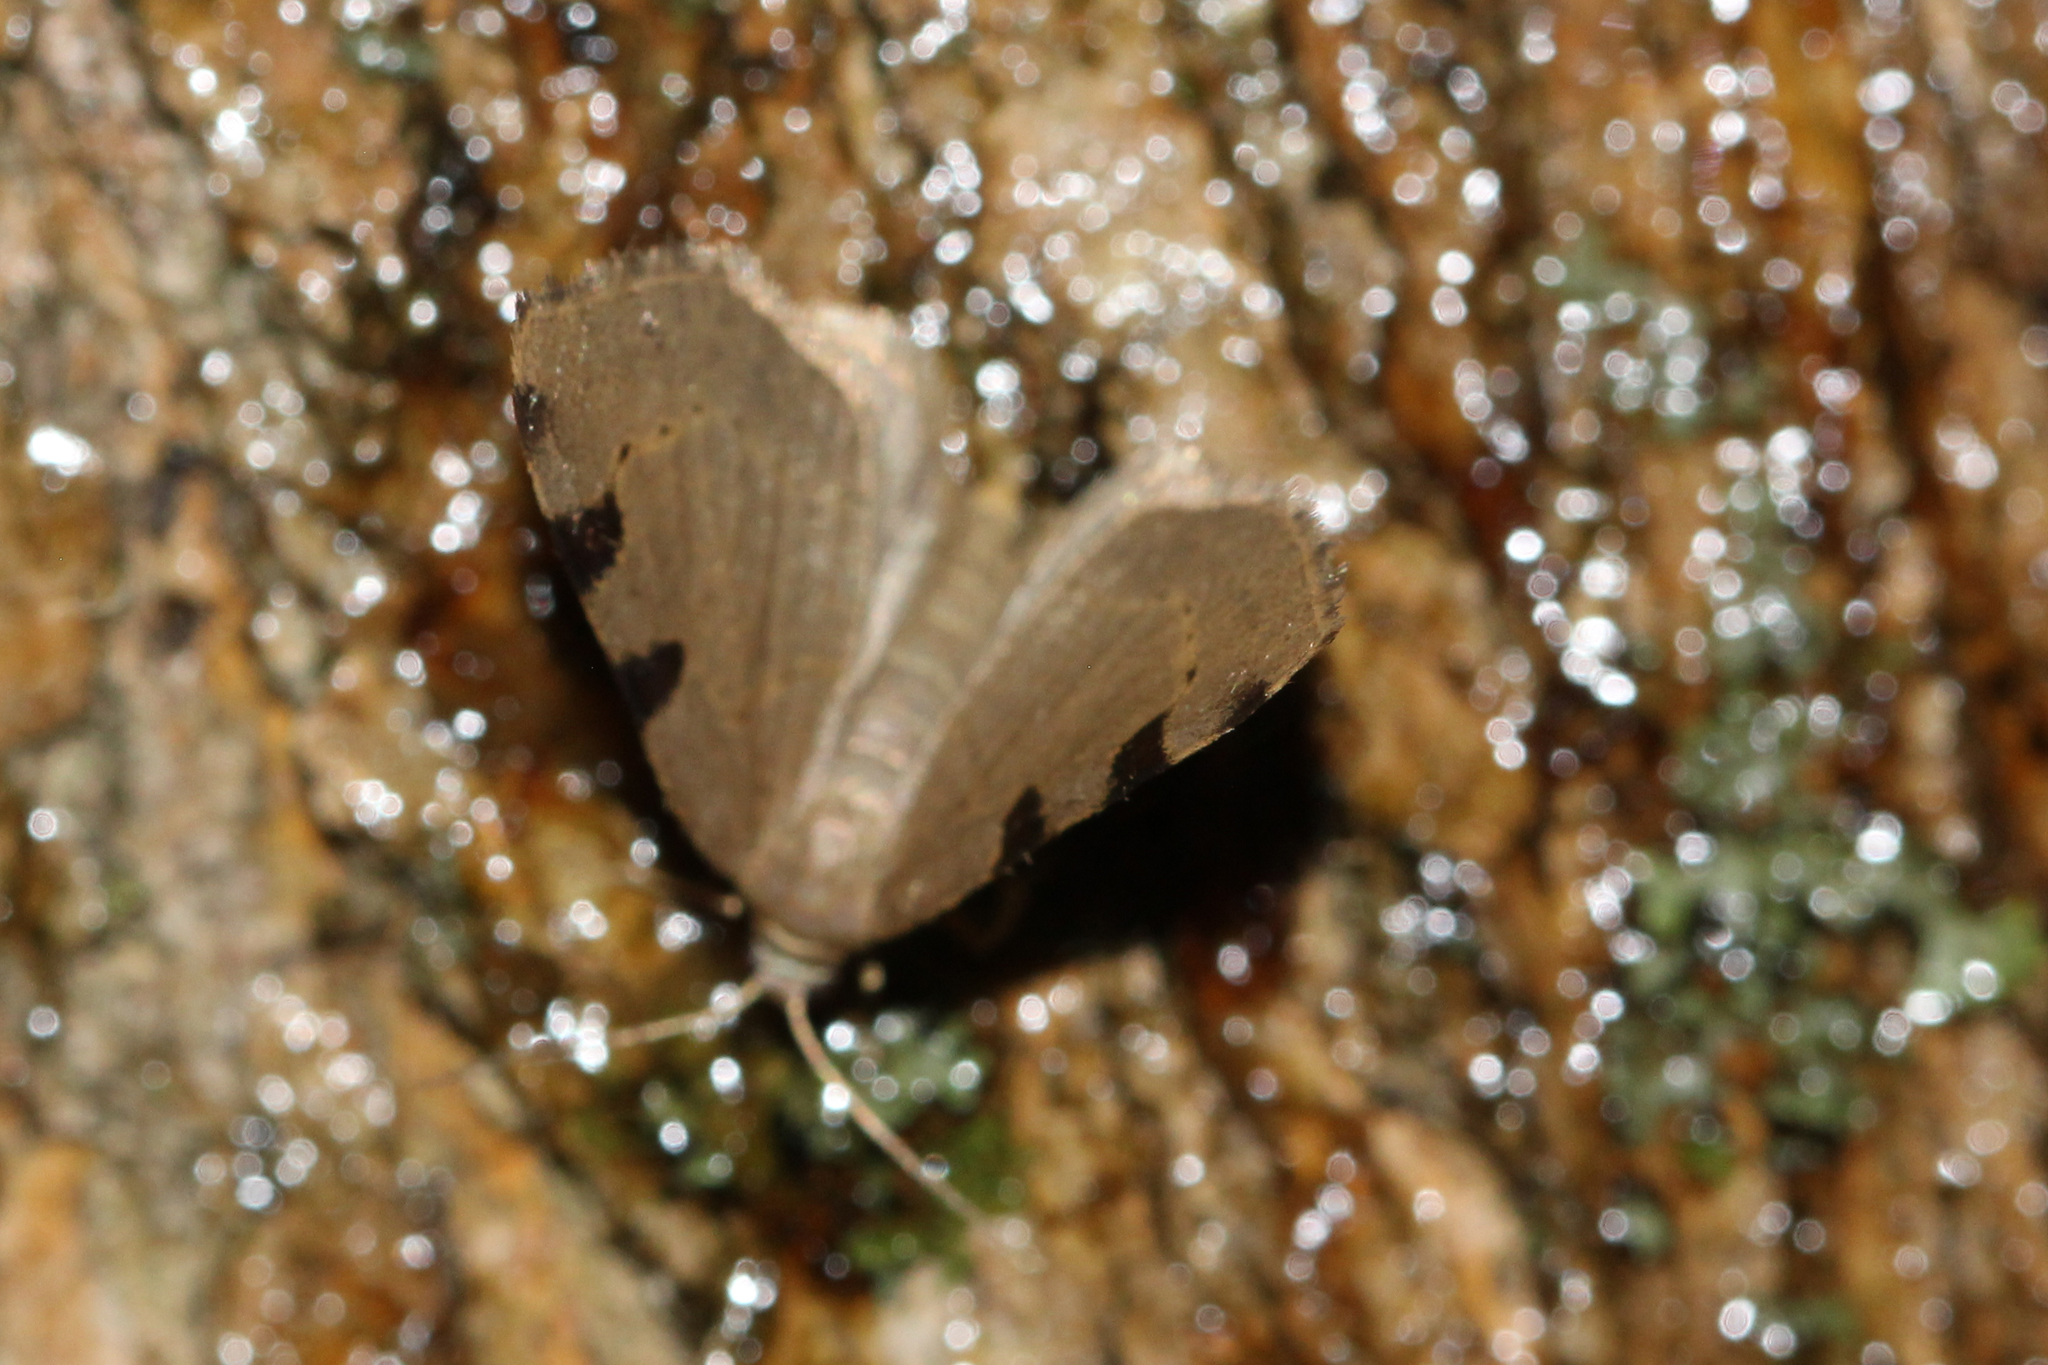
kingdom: Animalia
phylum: Arthropoda
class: Insecta
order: Lepidoptera
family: Geometridae
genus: Heterophleps
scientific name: Heterophleps triguttaria
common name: Three-spotted fillip
